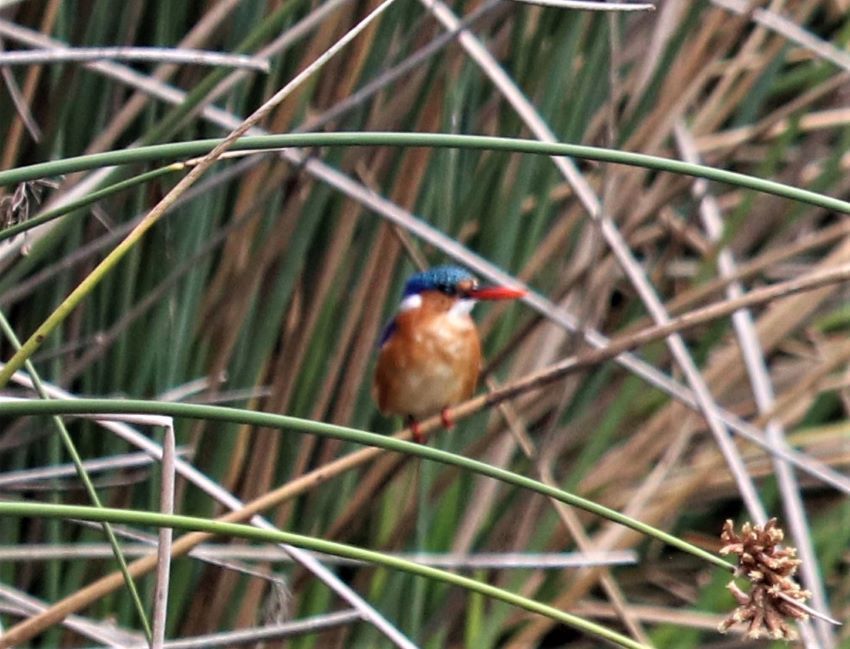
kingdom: Animalia
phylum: Chordata
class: Aves
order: Coraciiformes
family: Alcedinidae
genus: Corythornis
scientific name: Corythornis cristatus
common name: Malachite kingfisher
